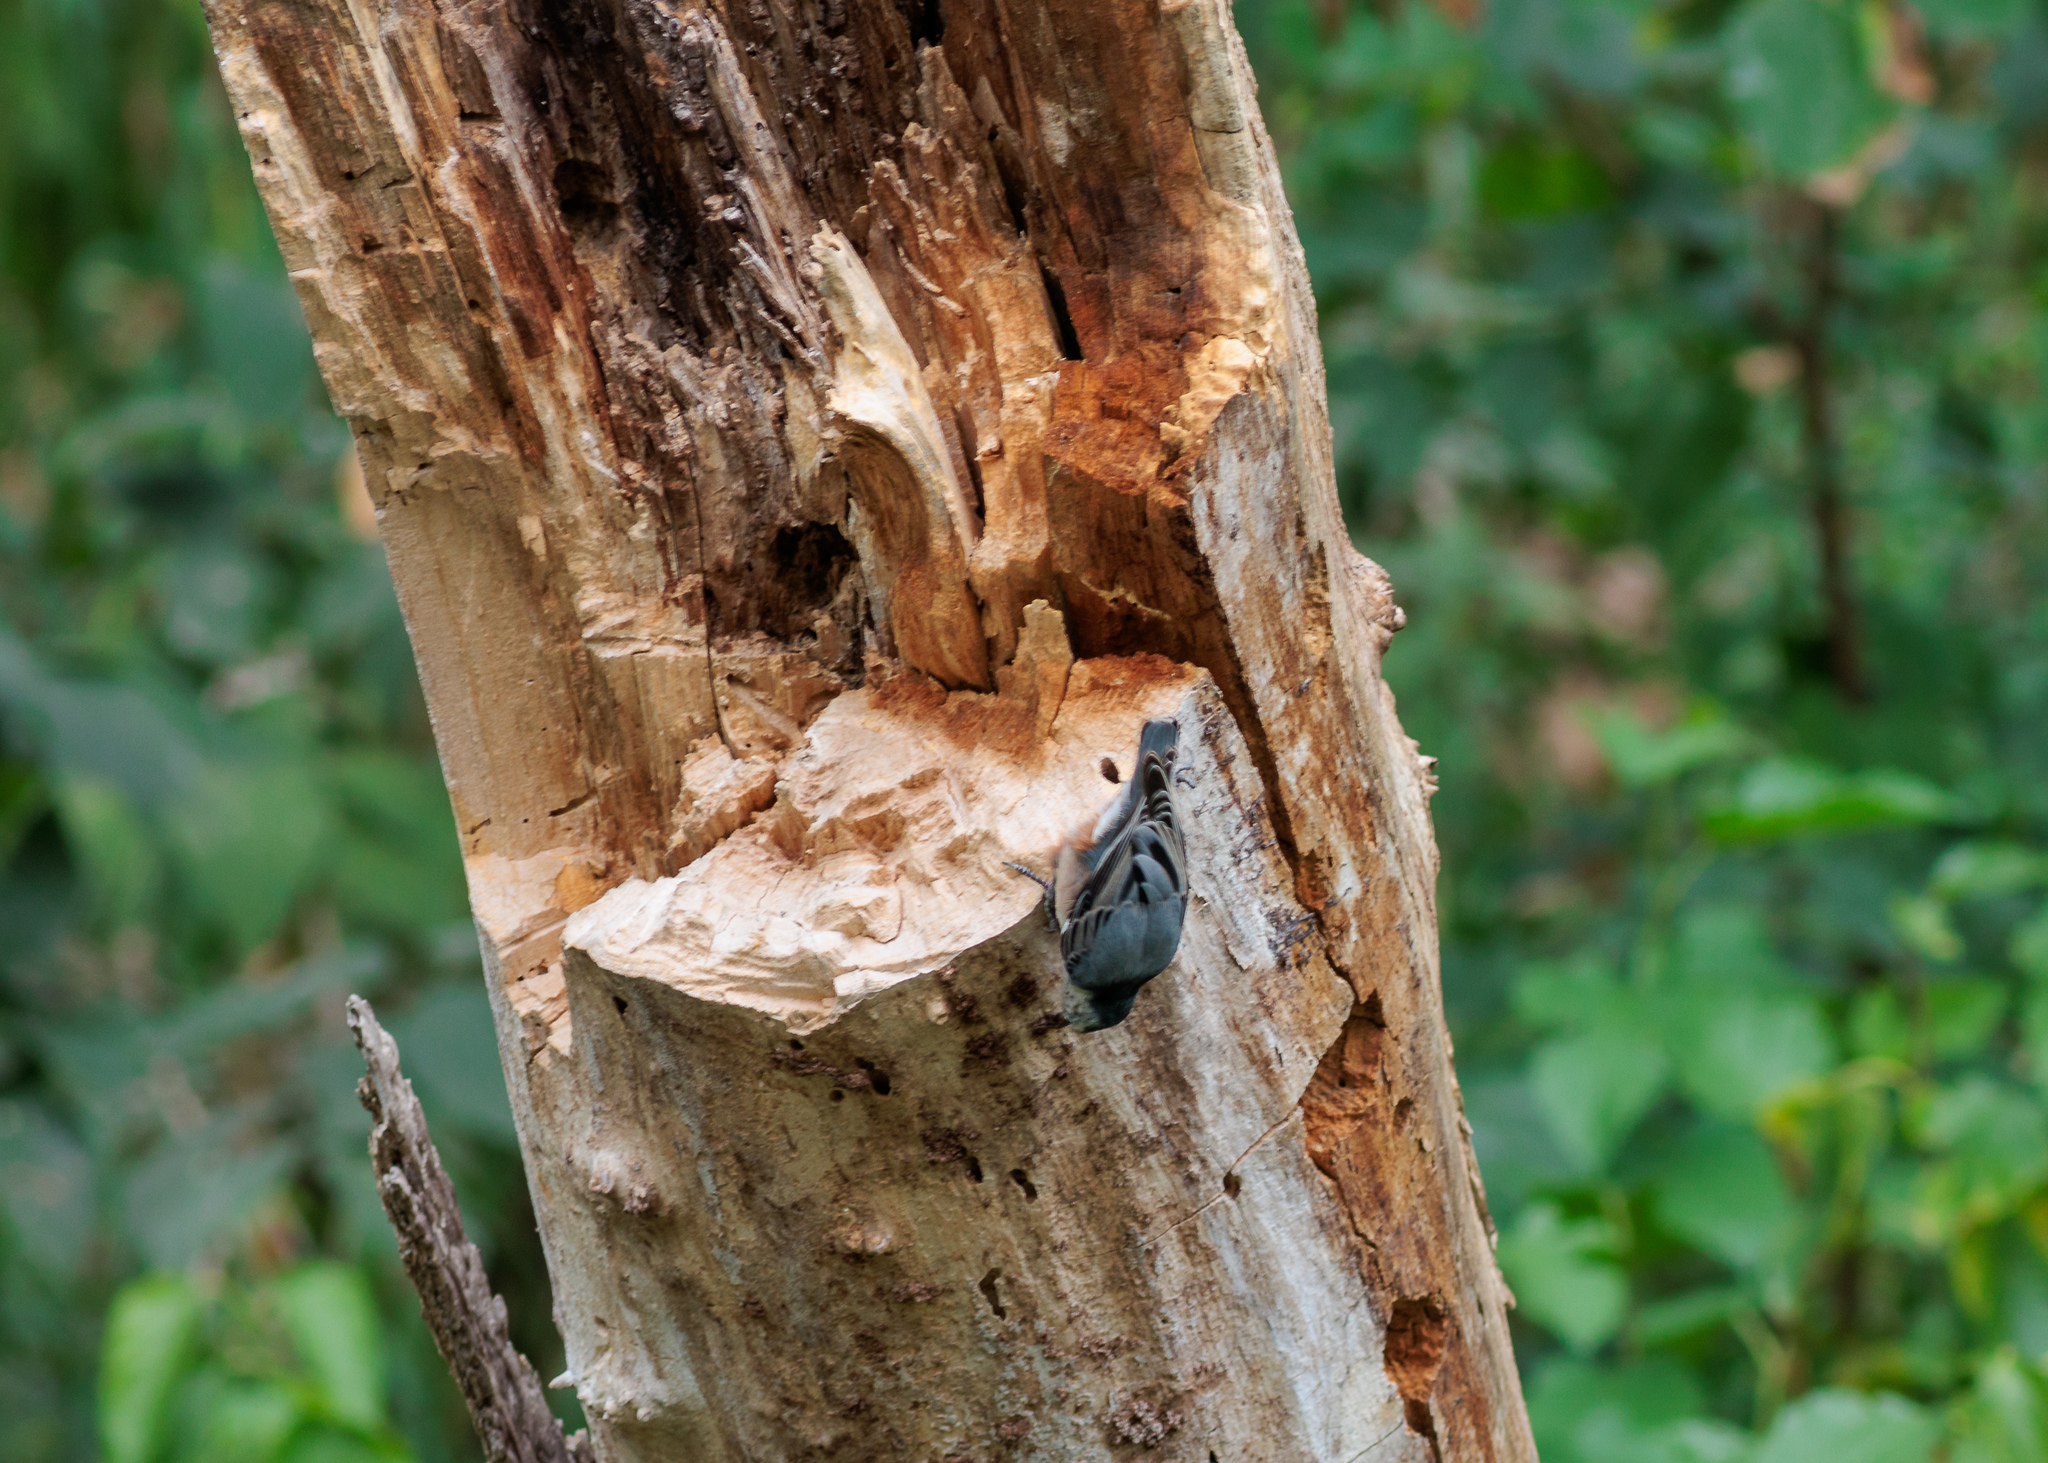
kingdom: Animalia
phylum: Chordata
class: Aves
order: Passeriformes
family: Sittidae
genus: Sitta
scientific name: Sitta carolinensis
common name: White-breasted nuthatch
